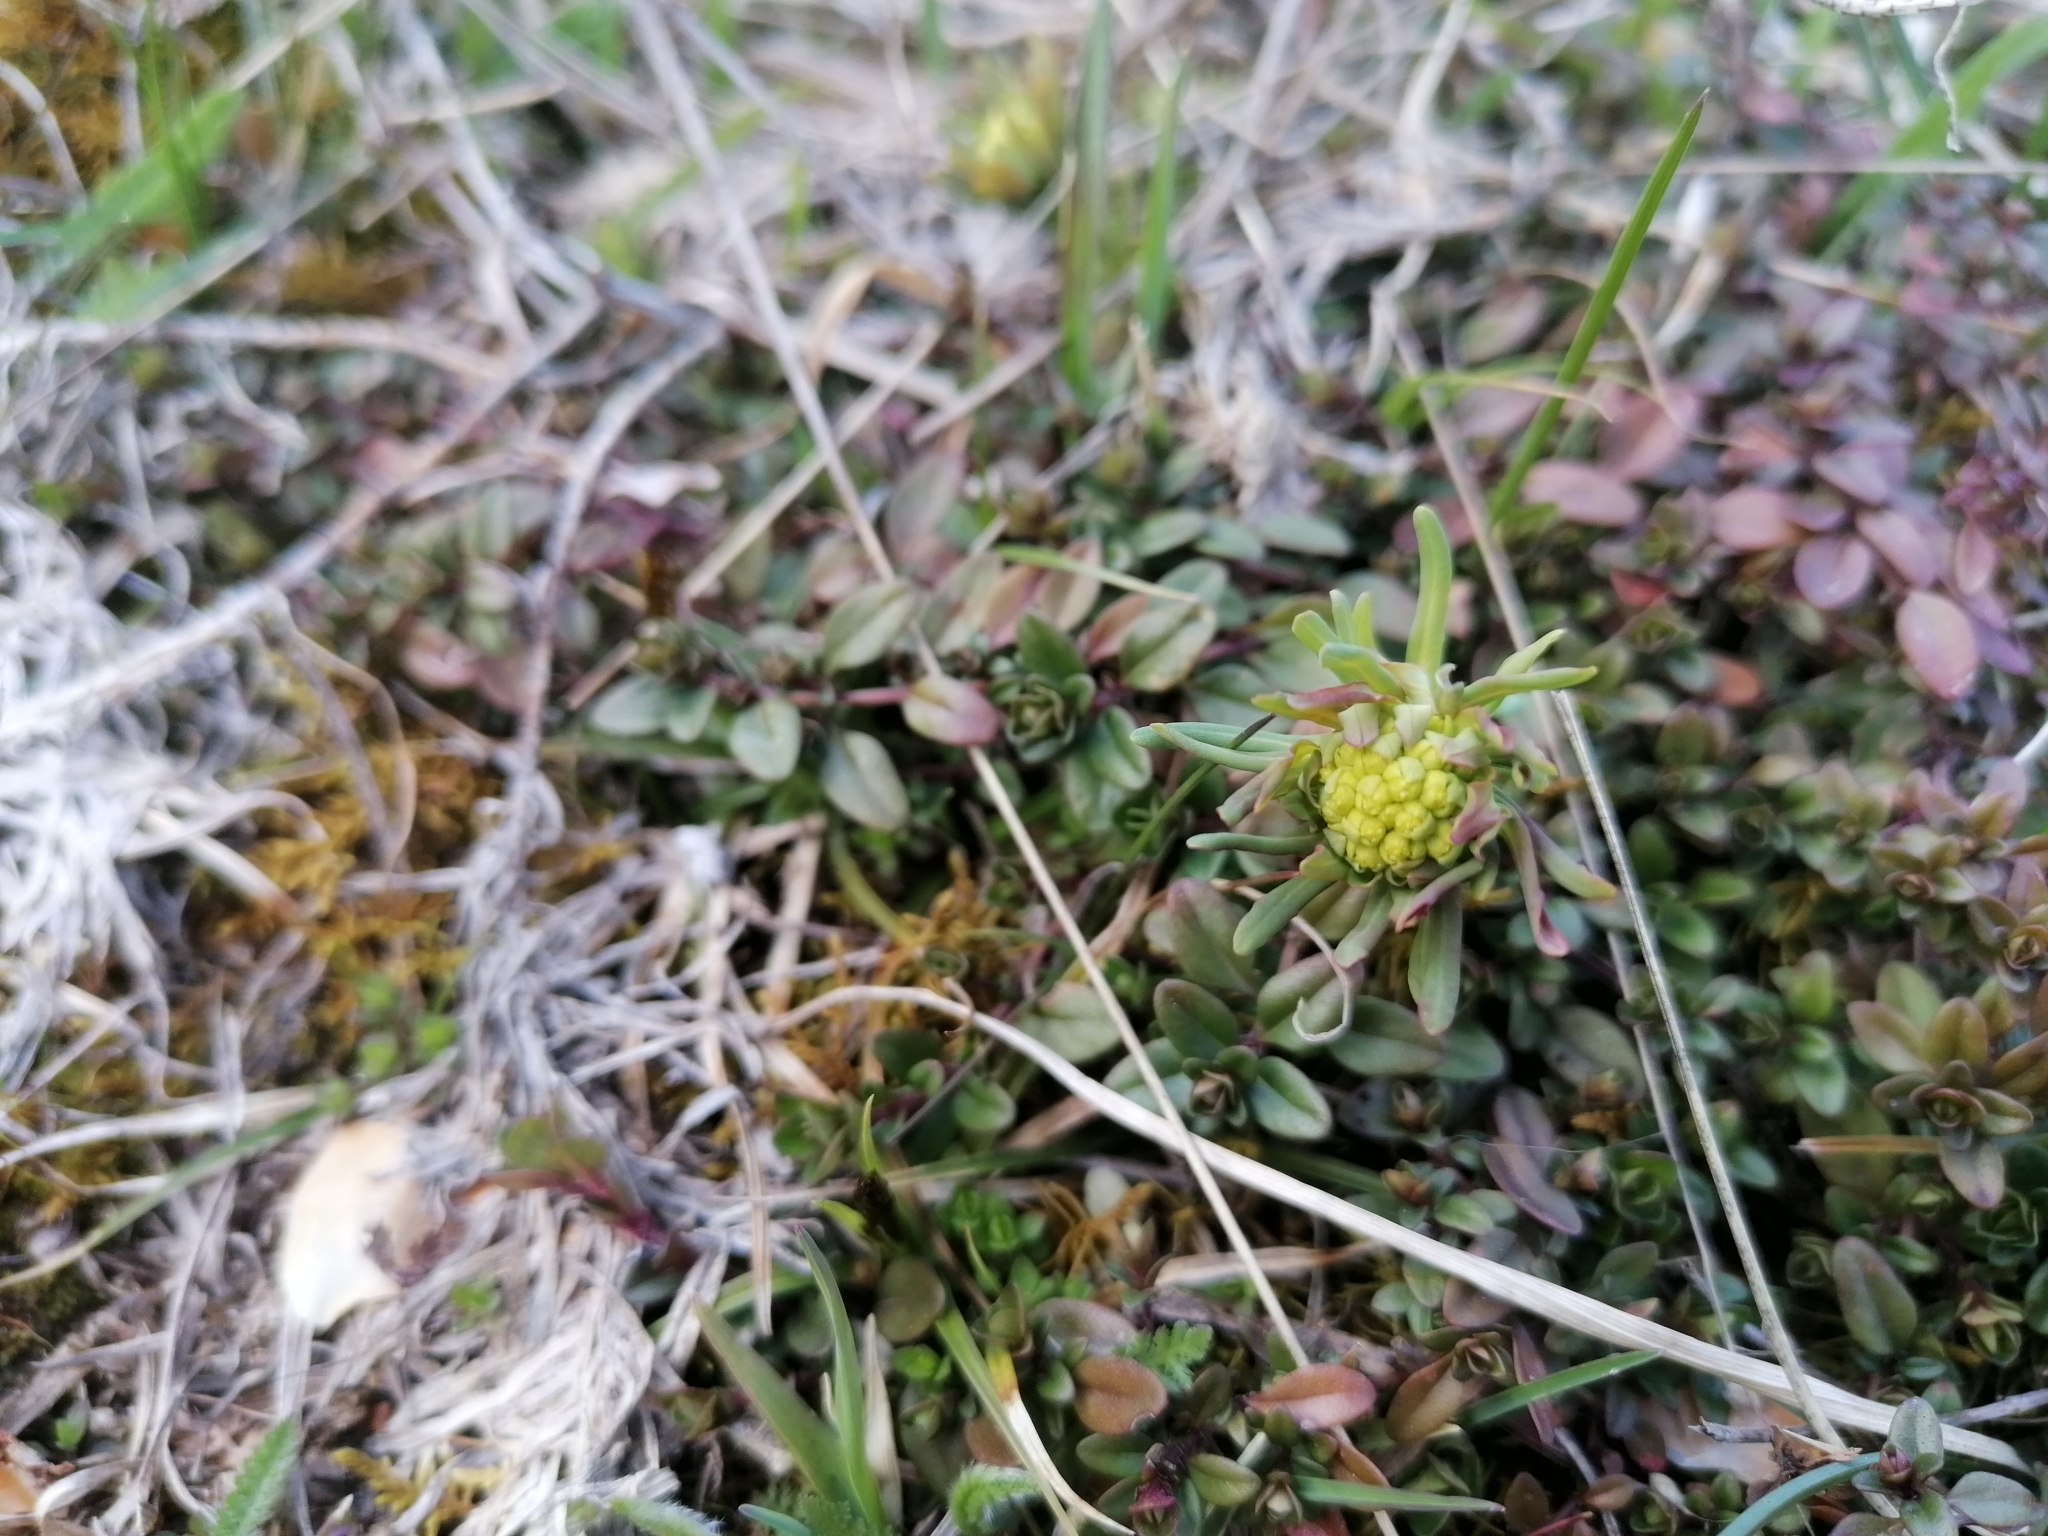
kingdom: Plantae
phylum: Tracheophyta
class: Magnoliopsida
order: Malpighiales
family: Euphorbiaceae
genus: Euphorbia
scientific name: Euphorbia cyparissias
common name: Cypress spurge
